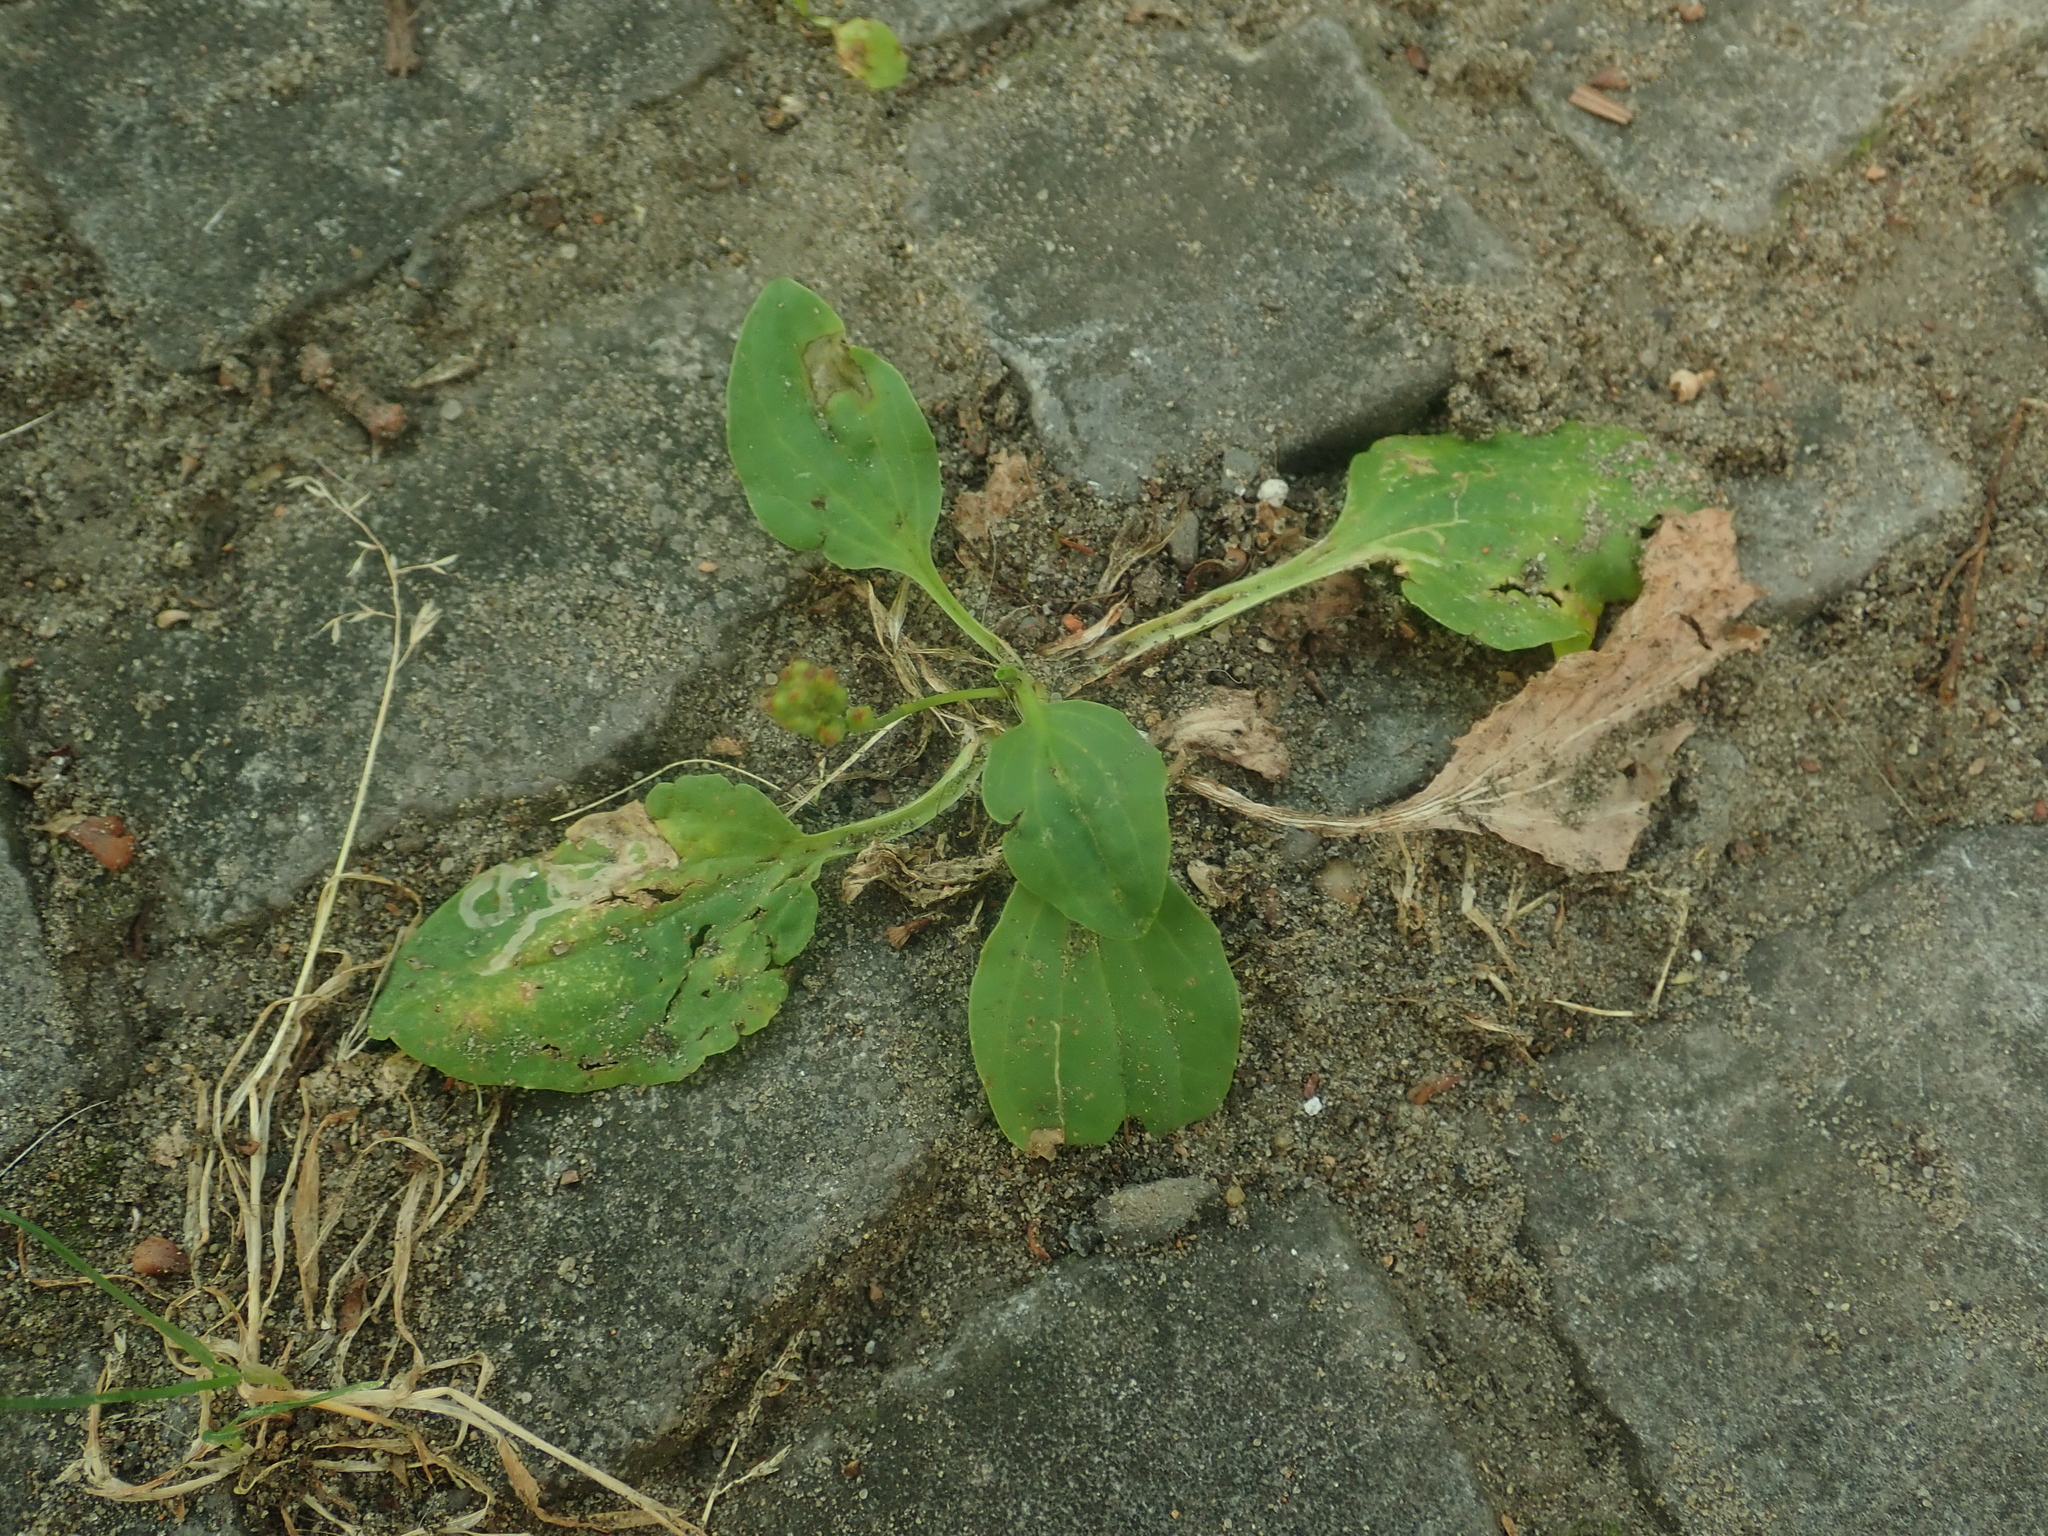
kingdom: Plantae
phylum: Tracheophyta
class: Magnoliopsida
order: Lamiales
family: Plantaginaceae
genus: Plantago
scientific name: Plantago major
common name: Common plantain
